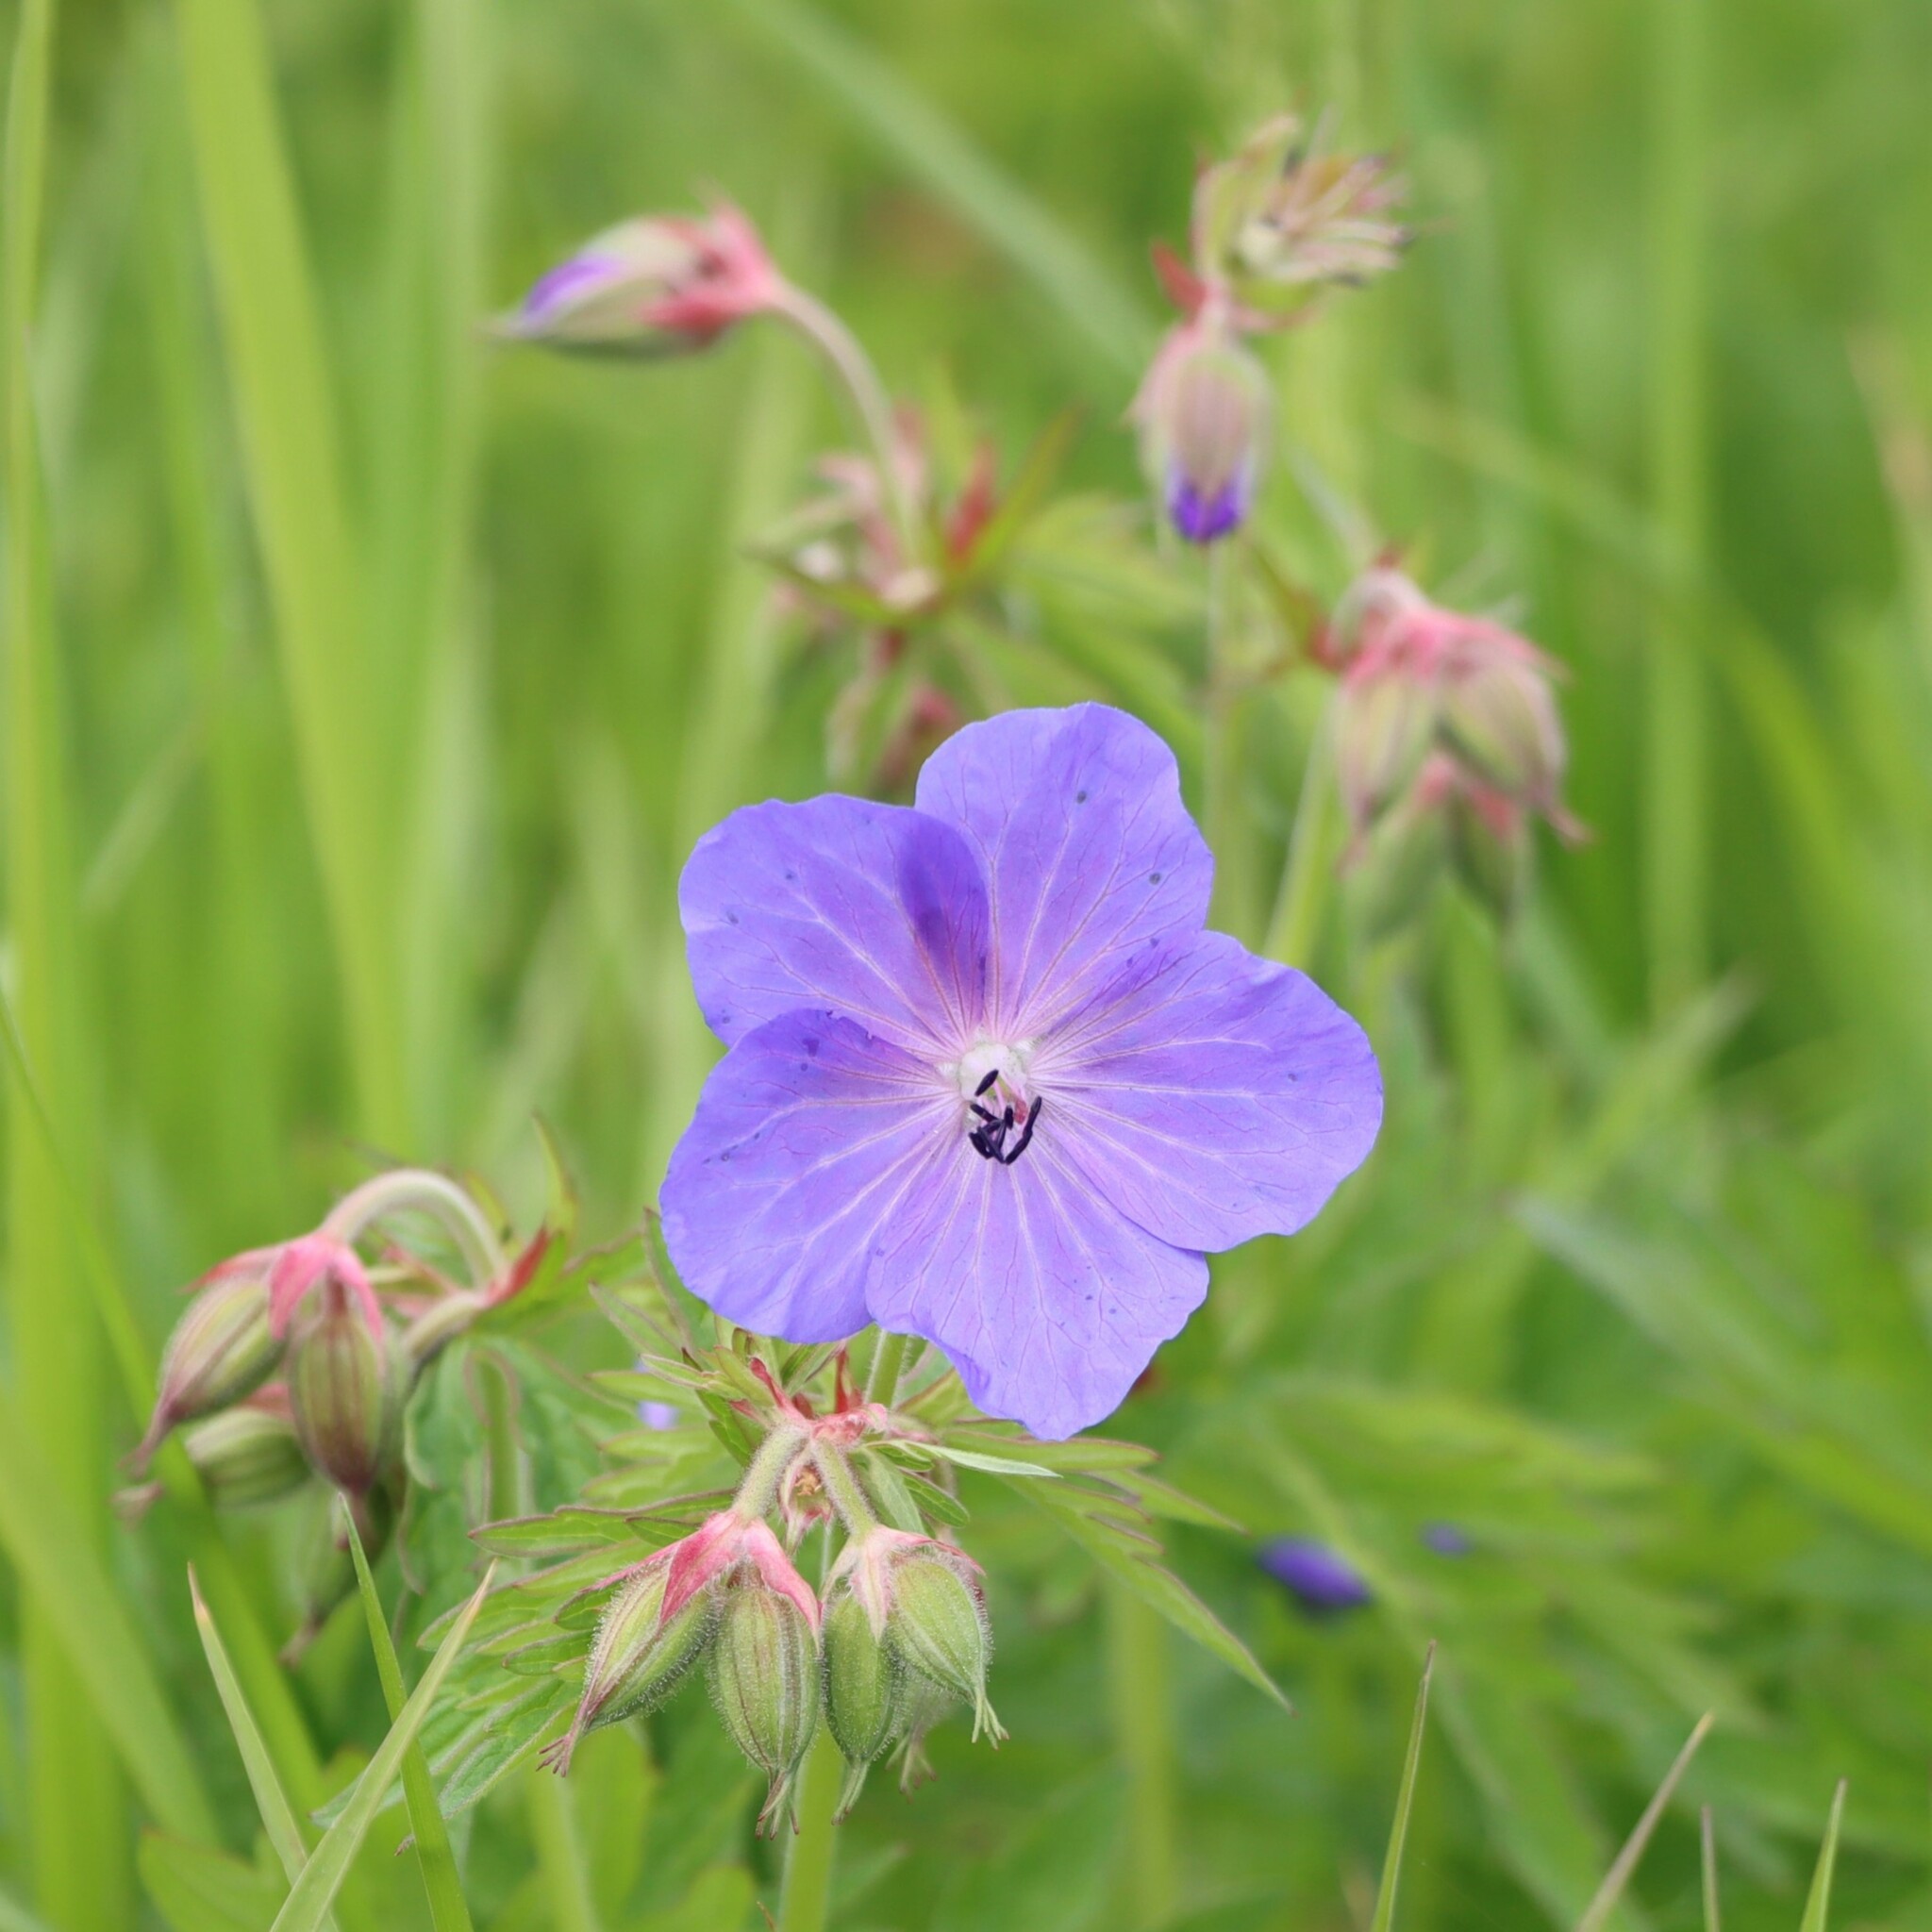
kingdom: Plantae
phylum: Tracheophyta
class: Magnoliopsida
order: Geraniales
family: Geraniaceae
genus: Geranium
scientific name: Geranium pratense
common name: Meadow crane's-bill
